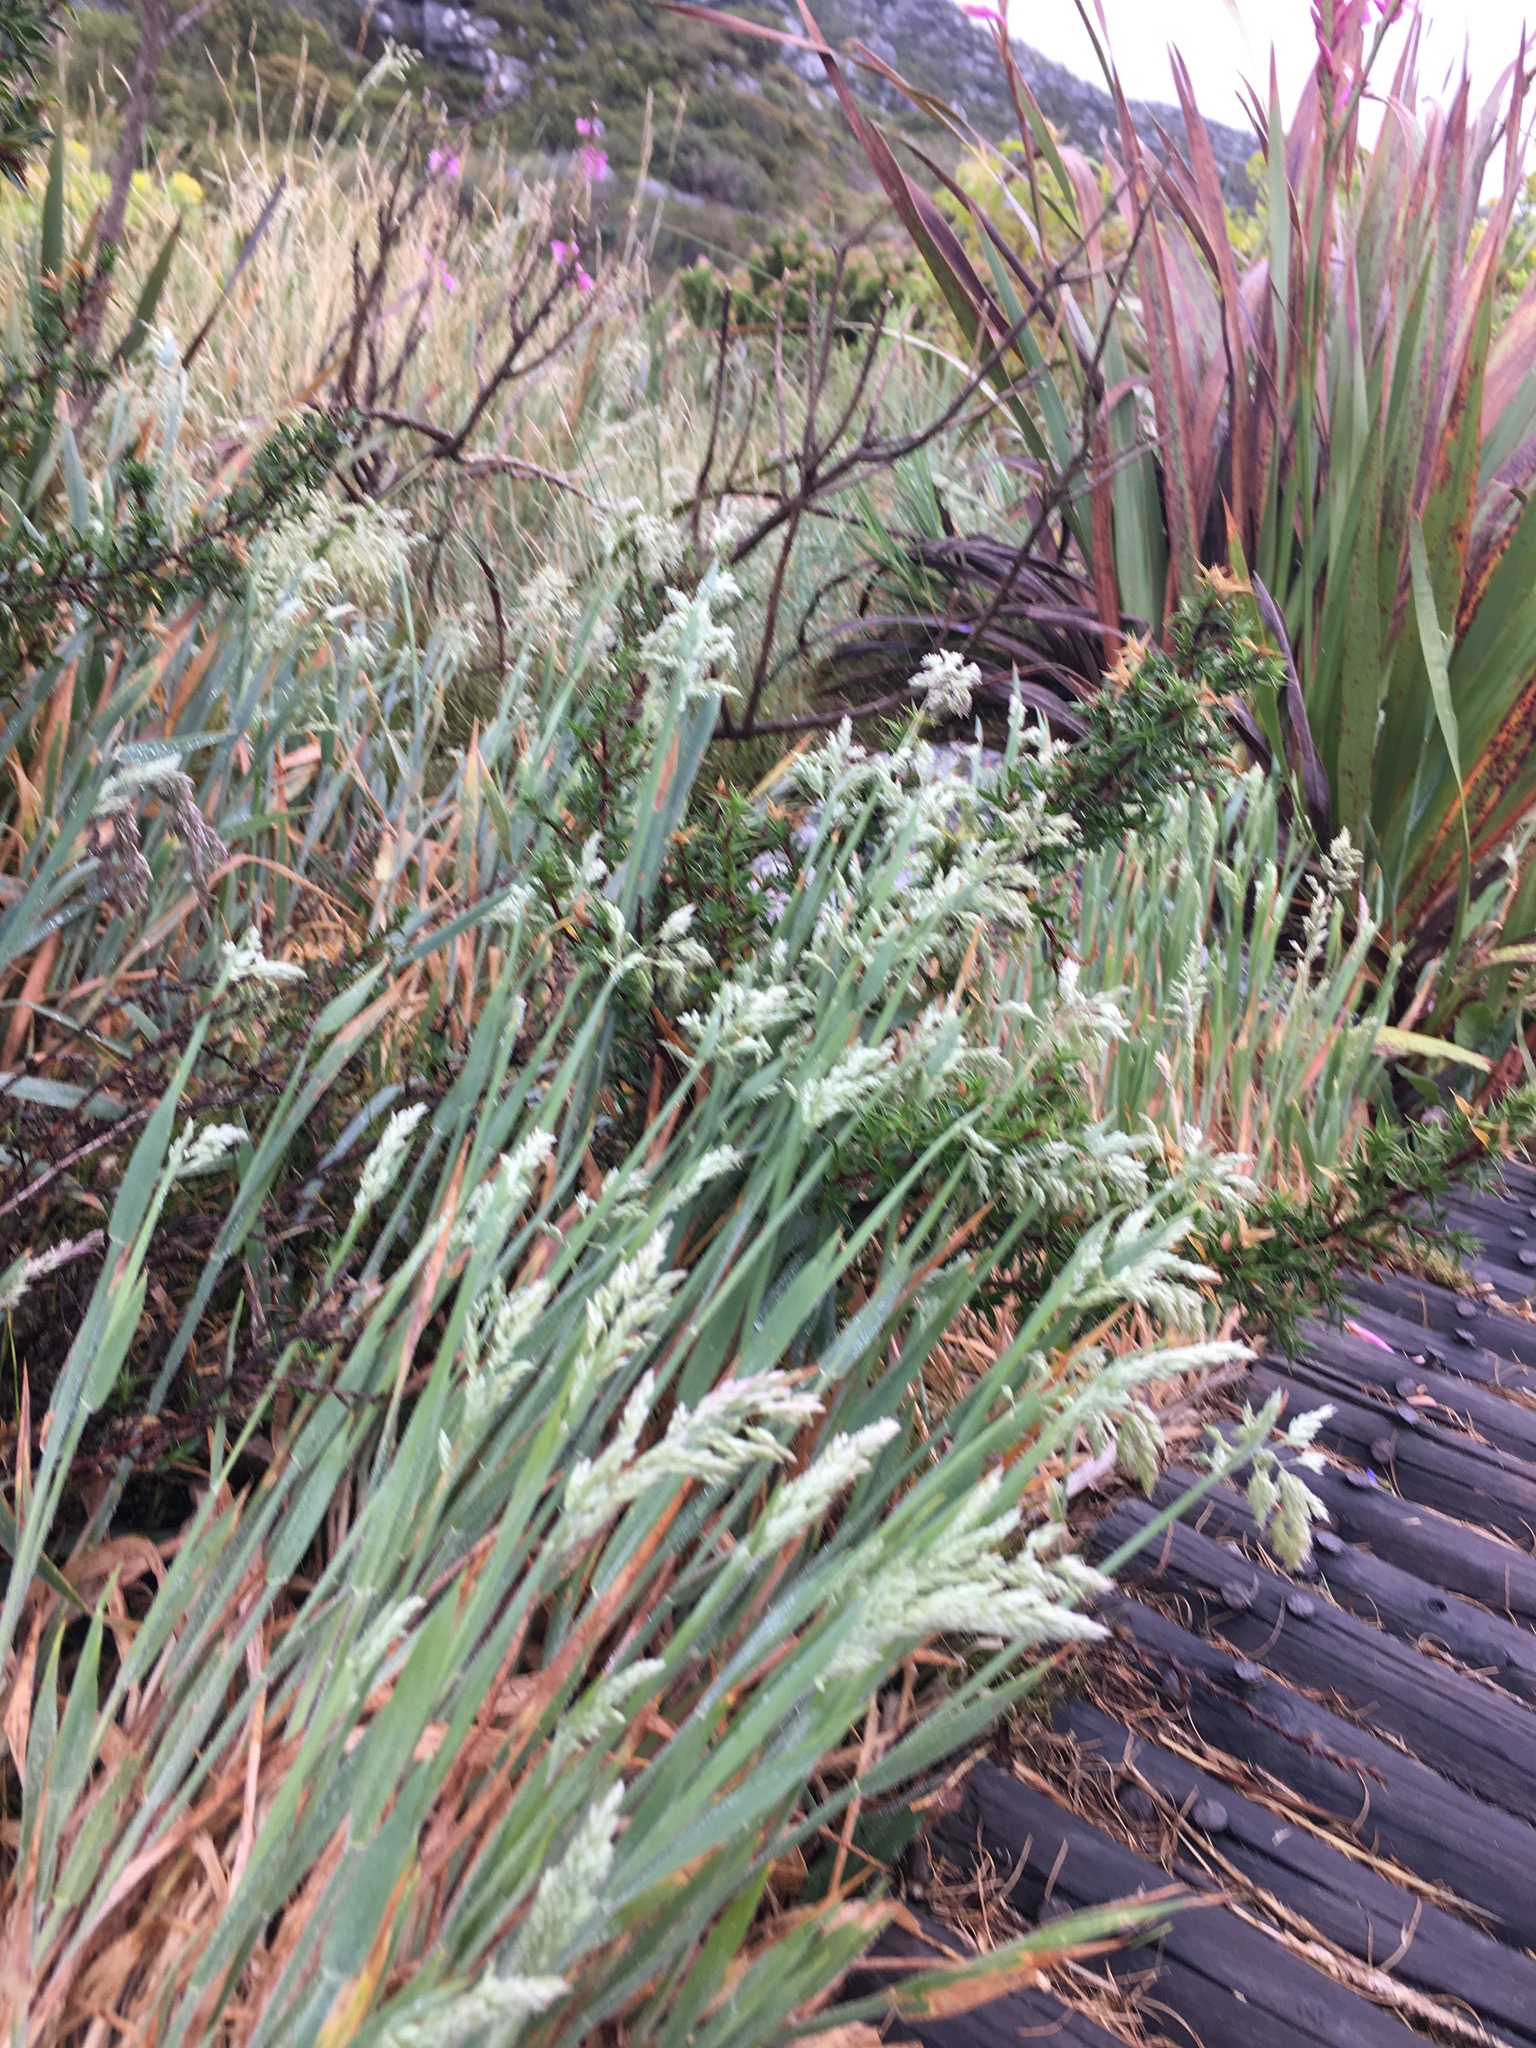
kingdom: Plantae
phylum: Tracheophyta
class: Liliopsida
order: Poales
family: Poaceae
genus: Holcus
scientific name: Holcus lanatus
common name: Yorkshire-fog
